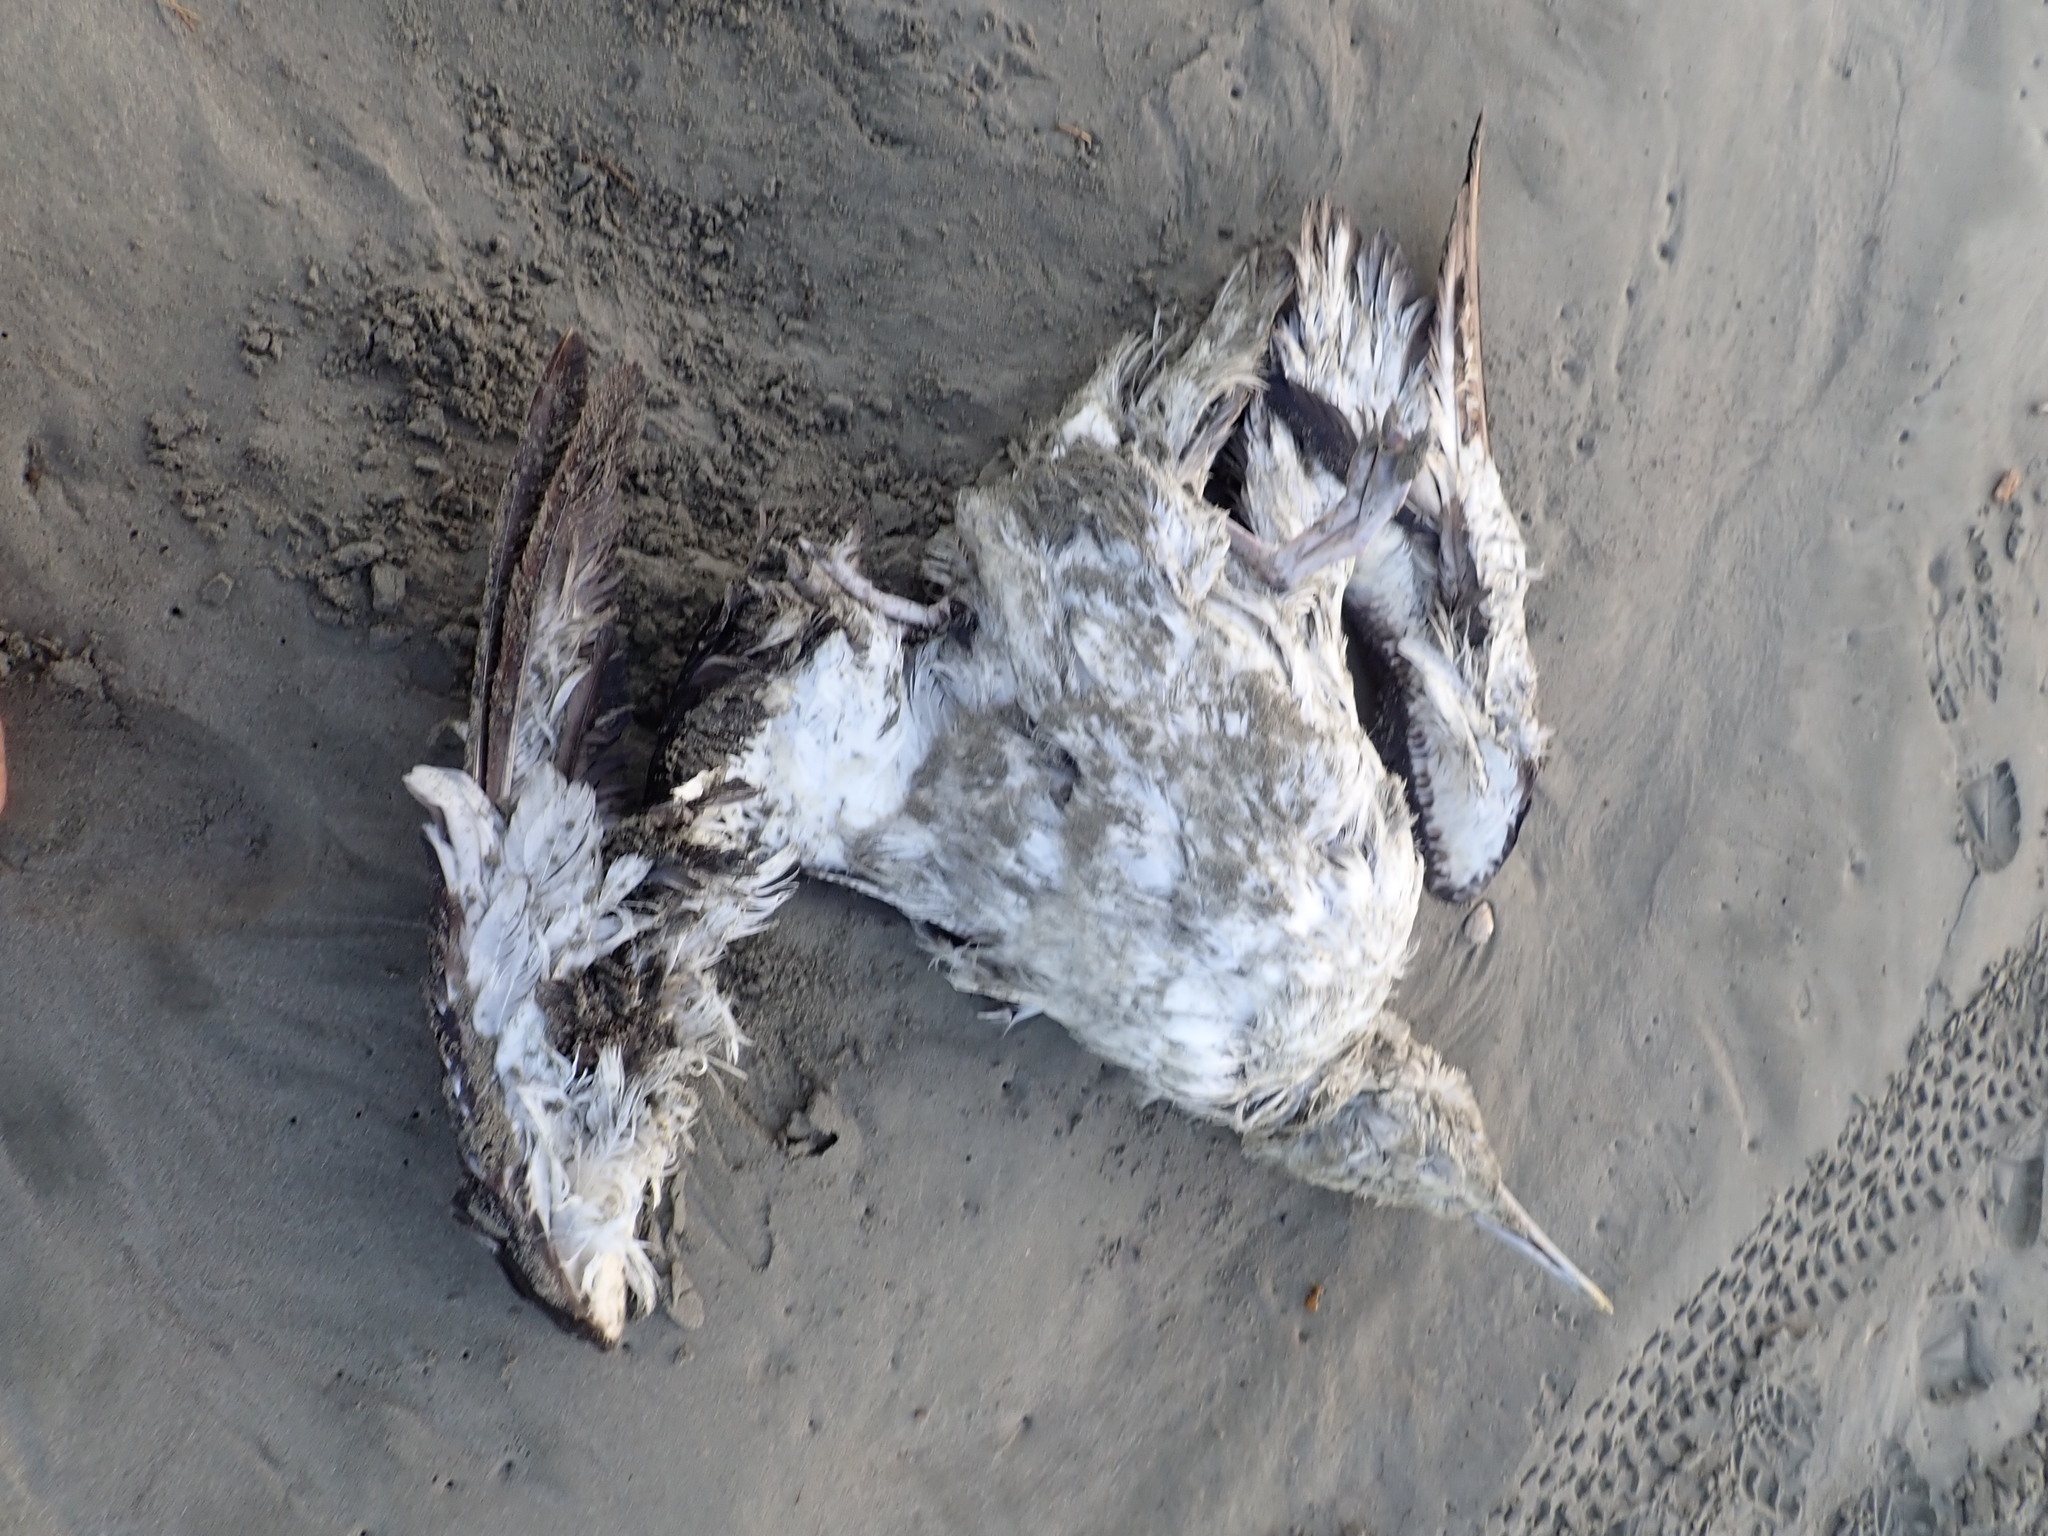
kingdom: Animalia
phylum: Chordata
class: Aves
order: Procellariiformes
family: Diomedeidae
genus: Thalassarche
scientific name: Thalassarche cauta
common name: Shy albatross
